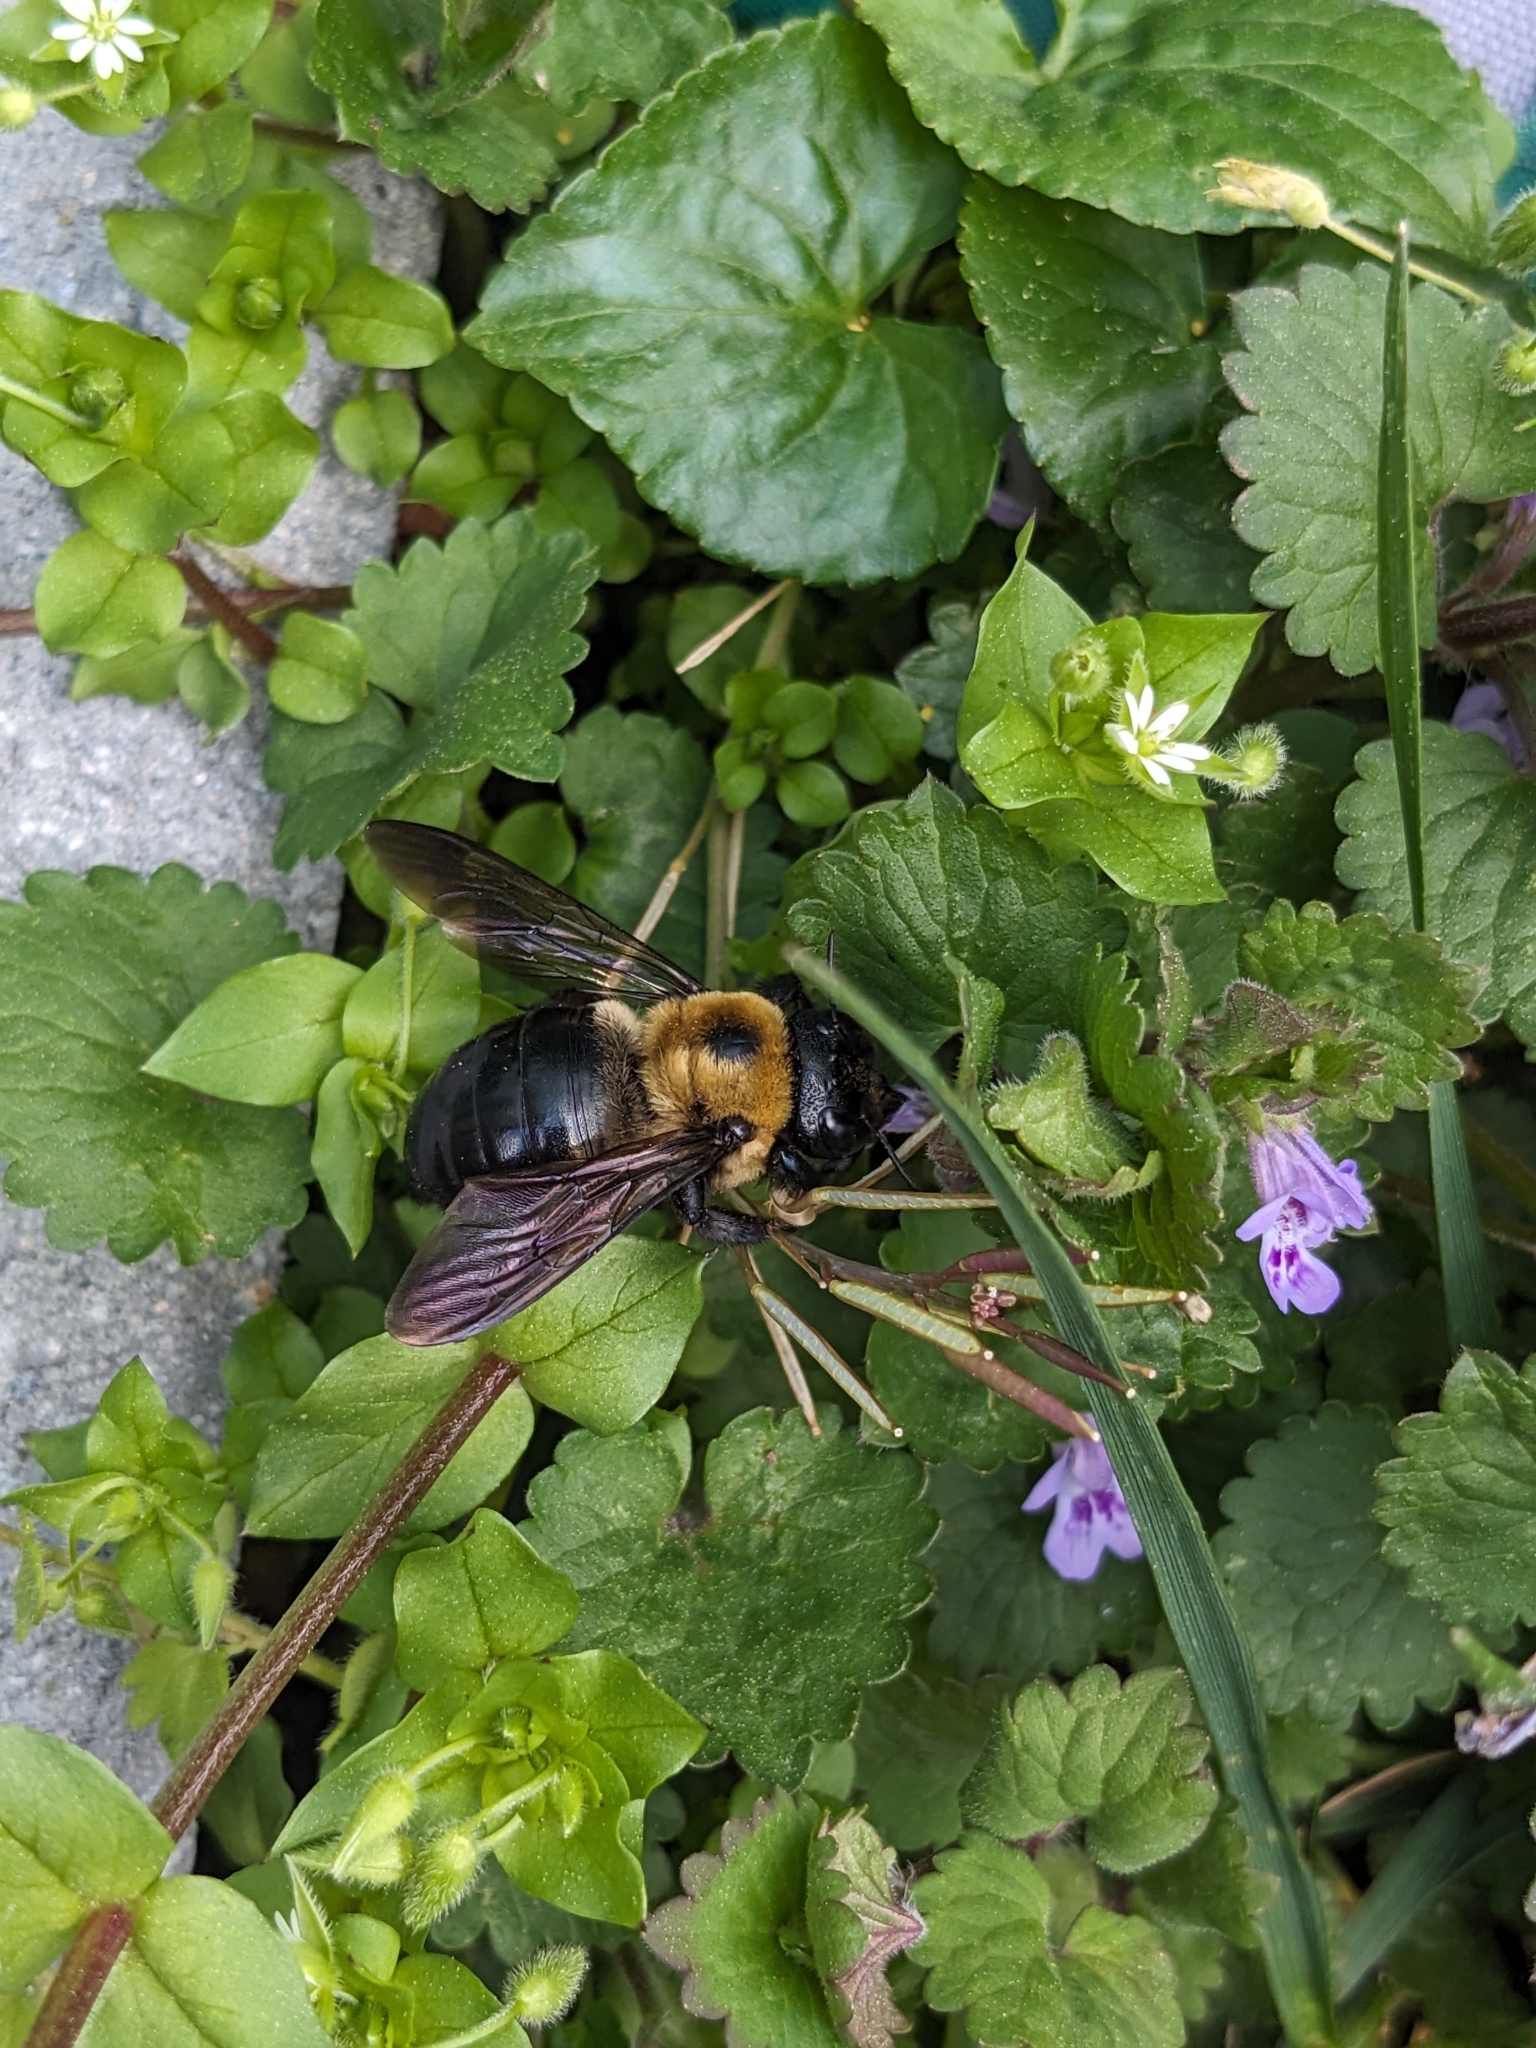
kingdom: Animalia
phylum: Arthropoda
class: Insecta
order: Hymenoptera
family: Apidae
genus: Xylocopa
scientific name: Xylocopa virginica
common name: Carpenter bee
